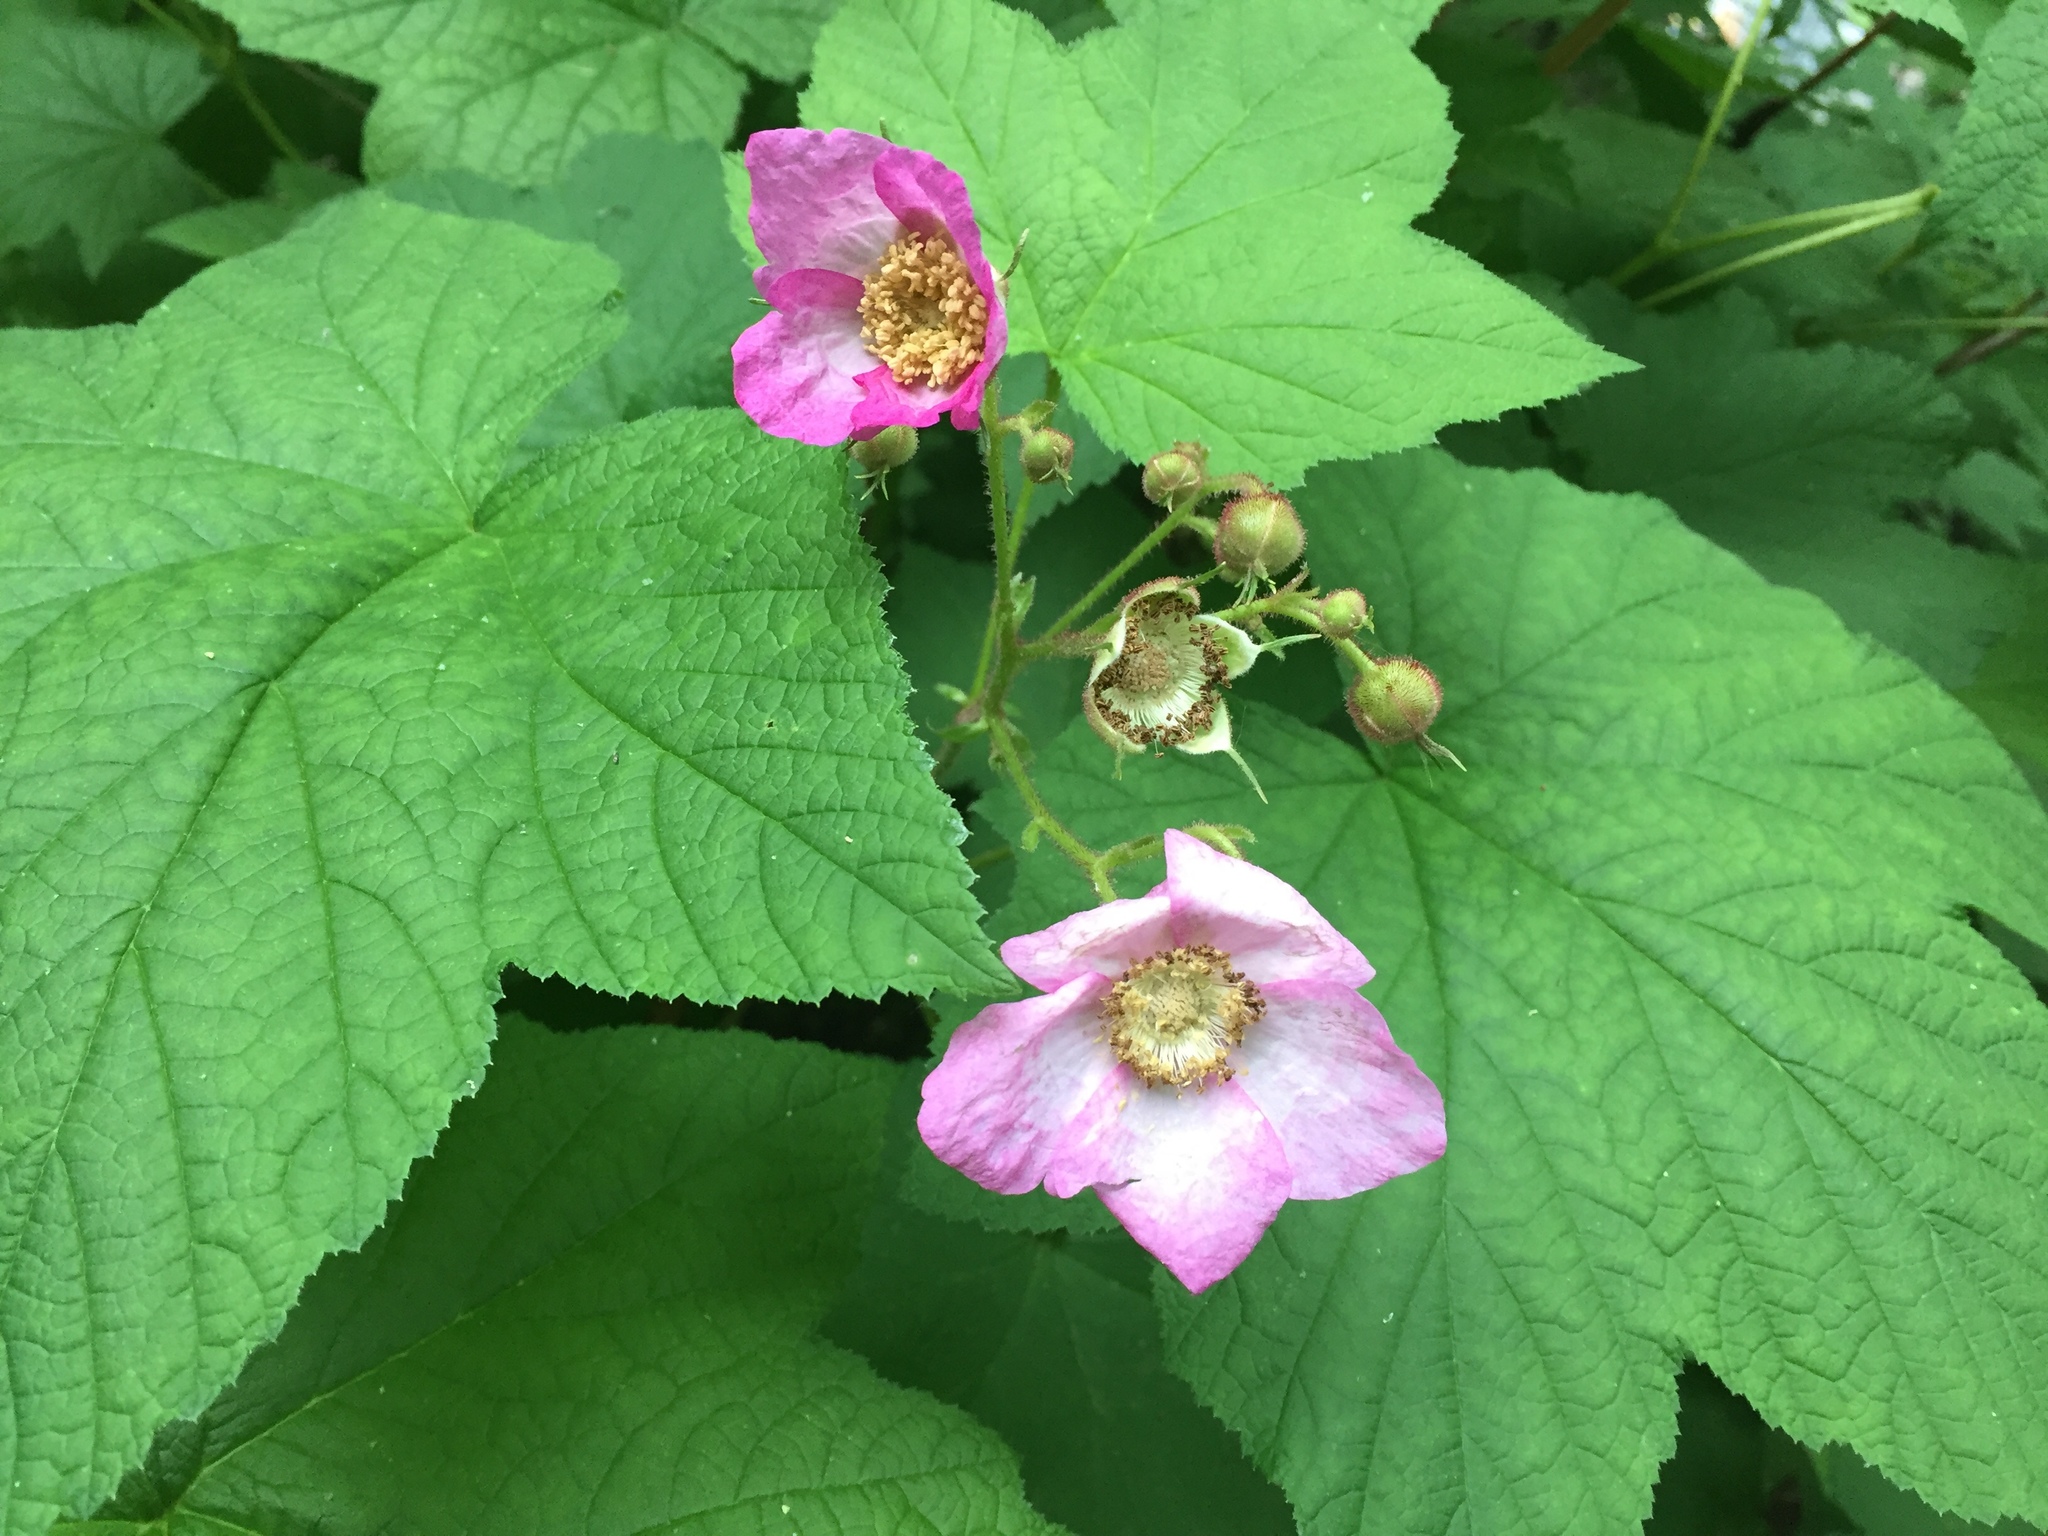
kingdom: Plantae
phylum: Tracheophyta
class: Magnoliopsida
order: Rosales
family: Rosaceae
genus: Rubus
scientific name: Rubus odoratus
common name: Purple-flowered raspberry
